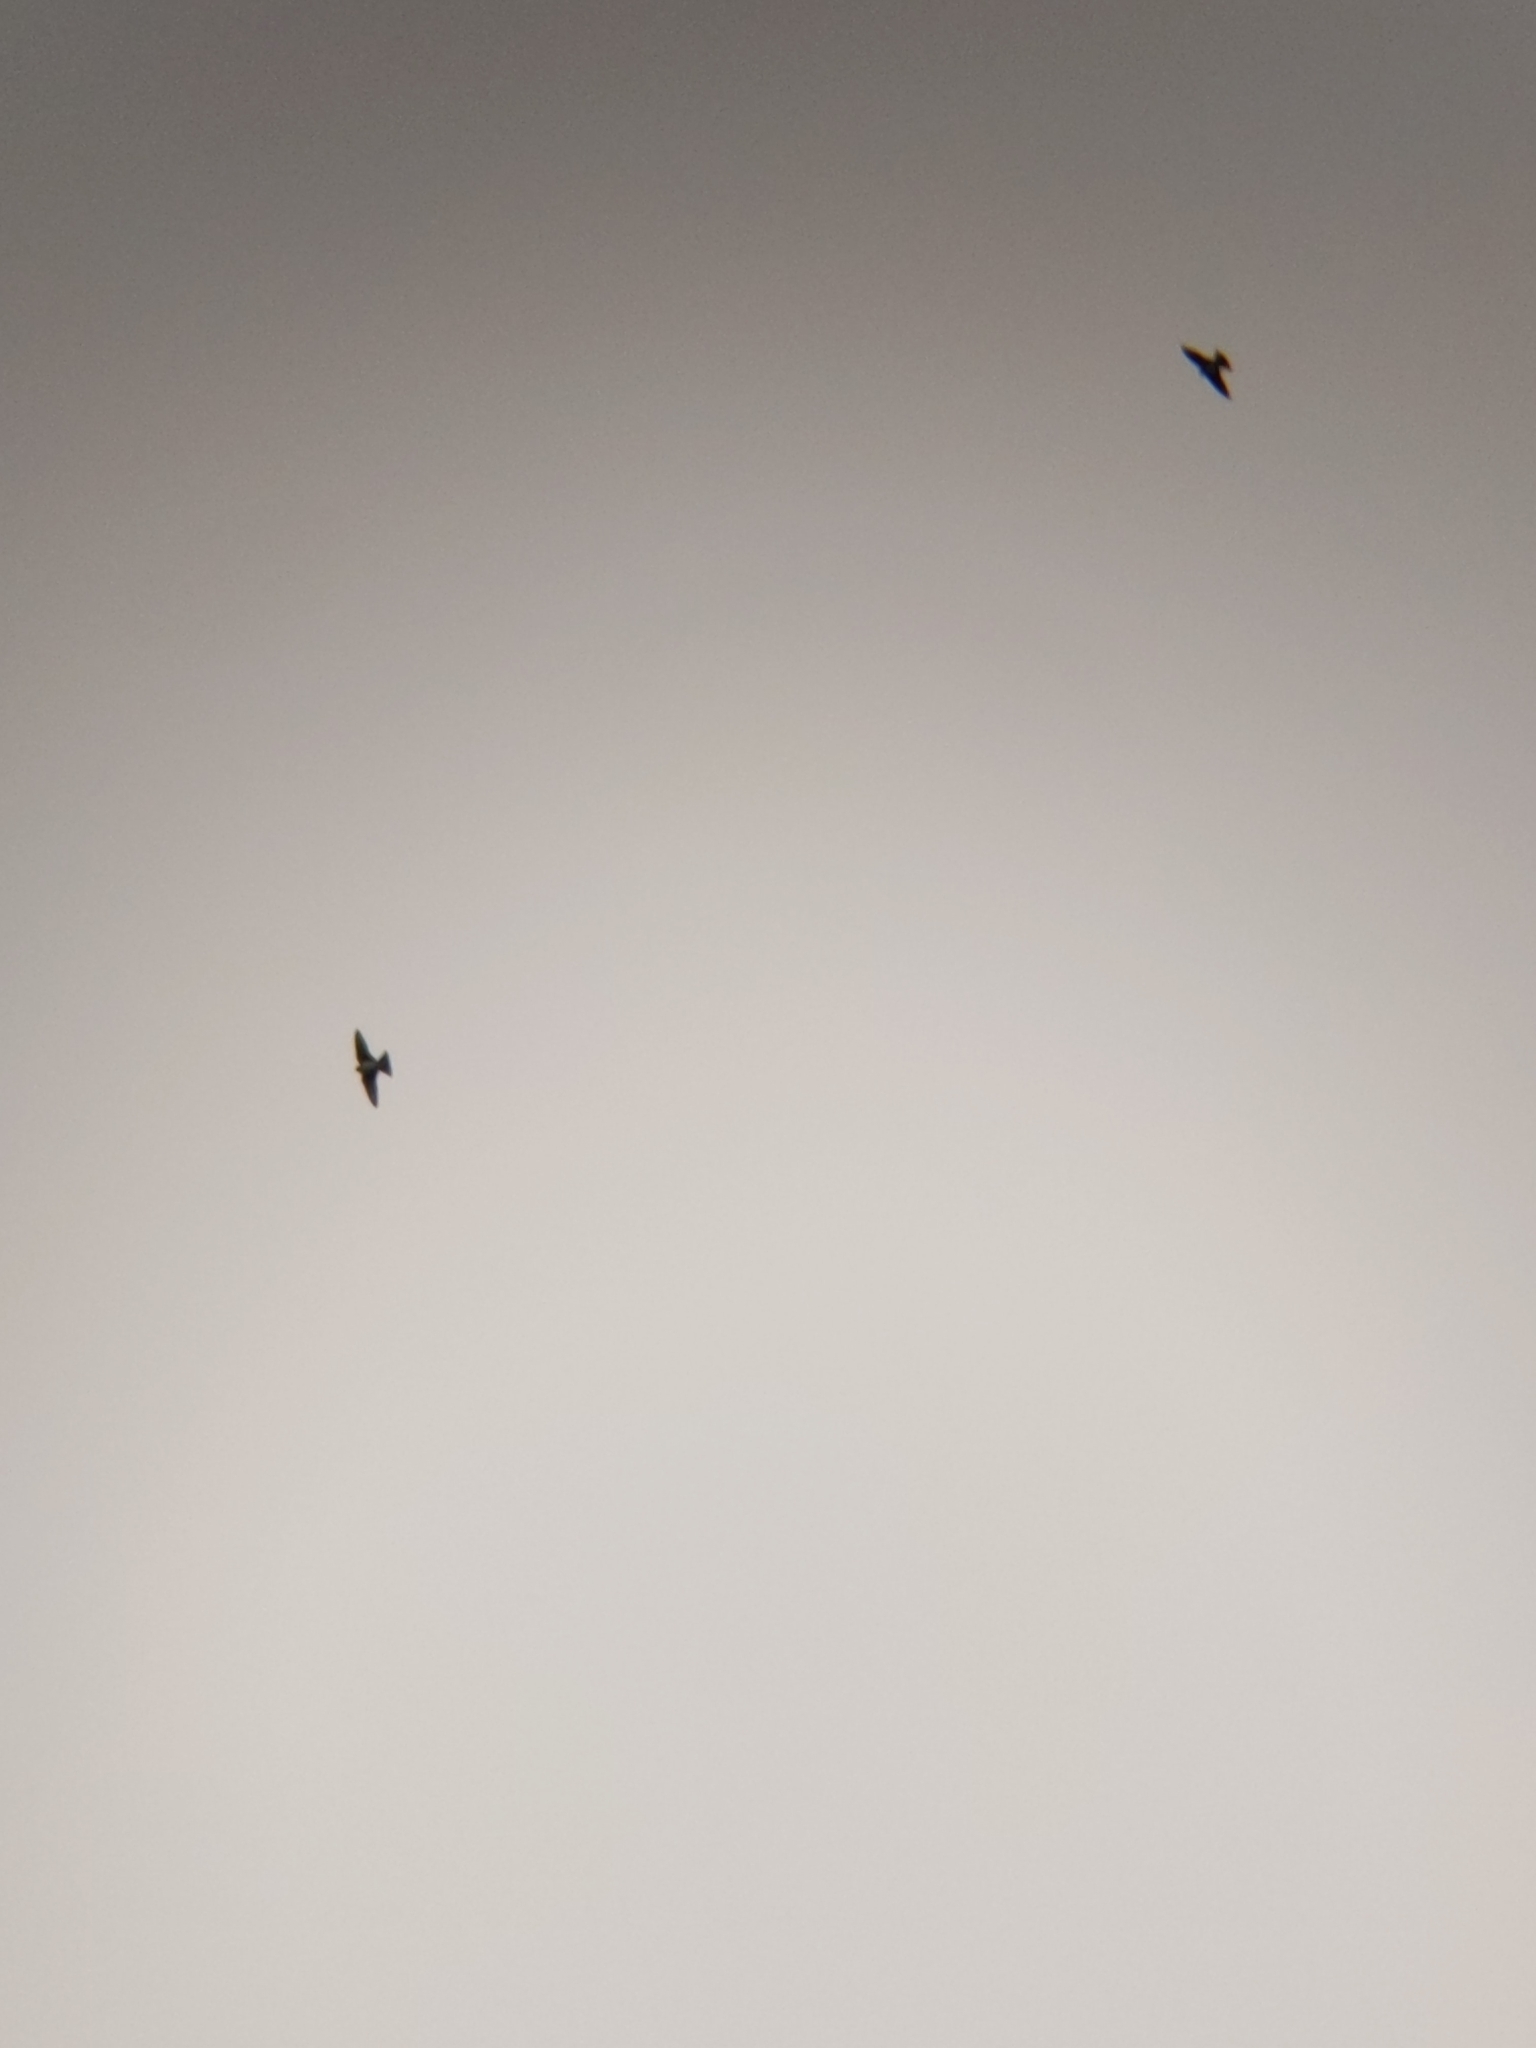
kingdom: Animalia
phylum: Chordata
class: Aves
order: Passeriformes
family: Hirundinidae
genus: Delichon
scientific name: Delichon urbicum
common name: Common house martin
